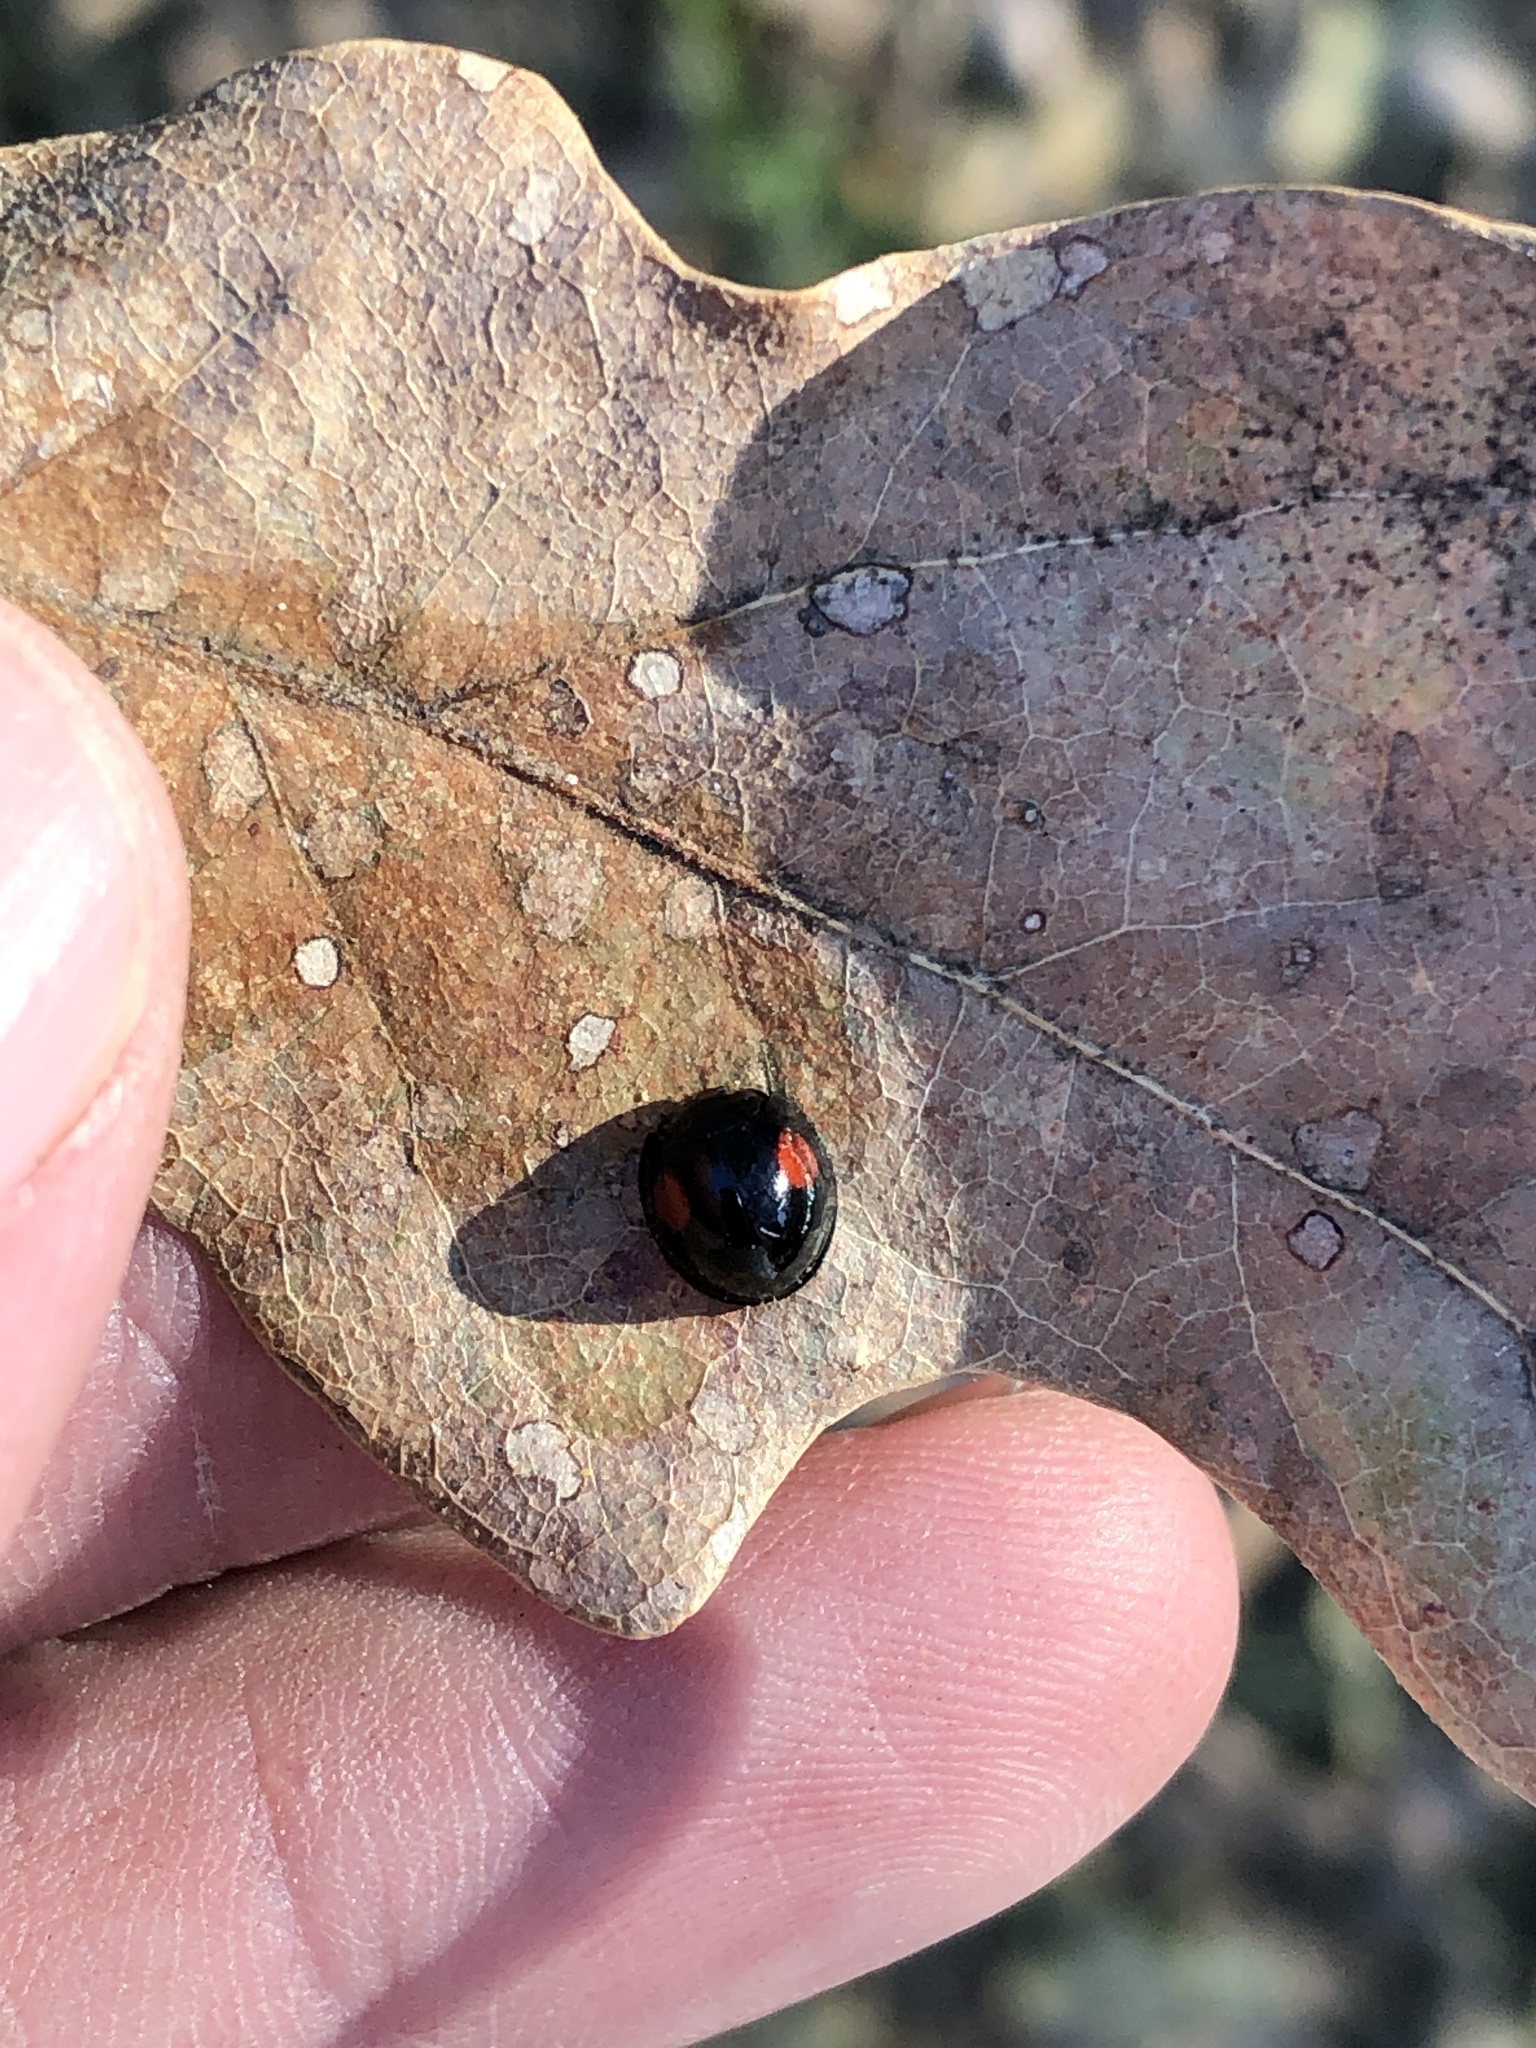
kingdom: Animalia
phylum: Arthropoda
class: Insecta
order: Coleoptera
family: Coccinellidae
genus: Axion
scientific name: Axion plagiatum
